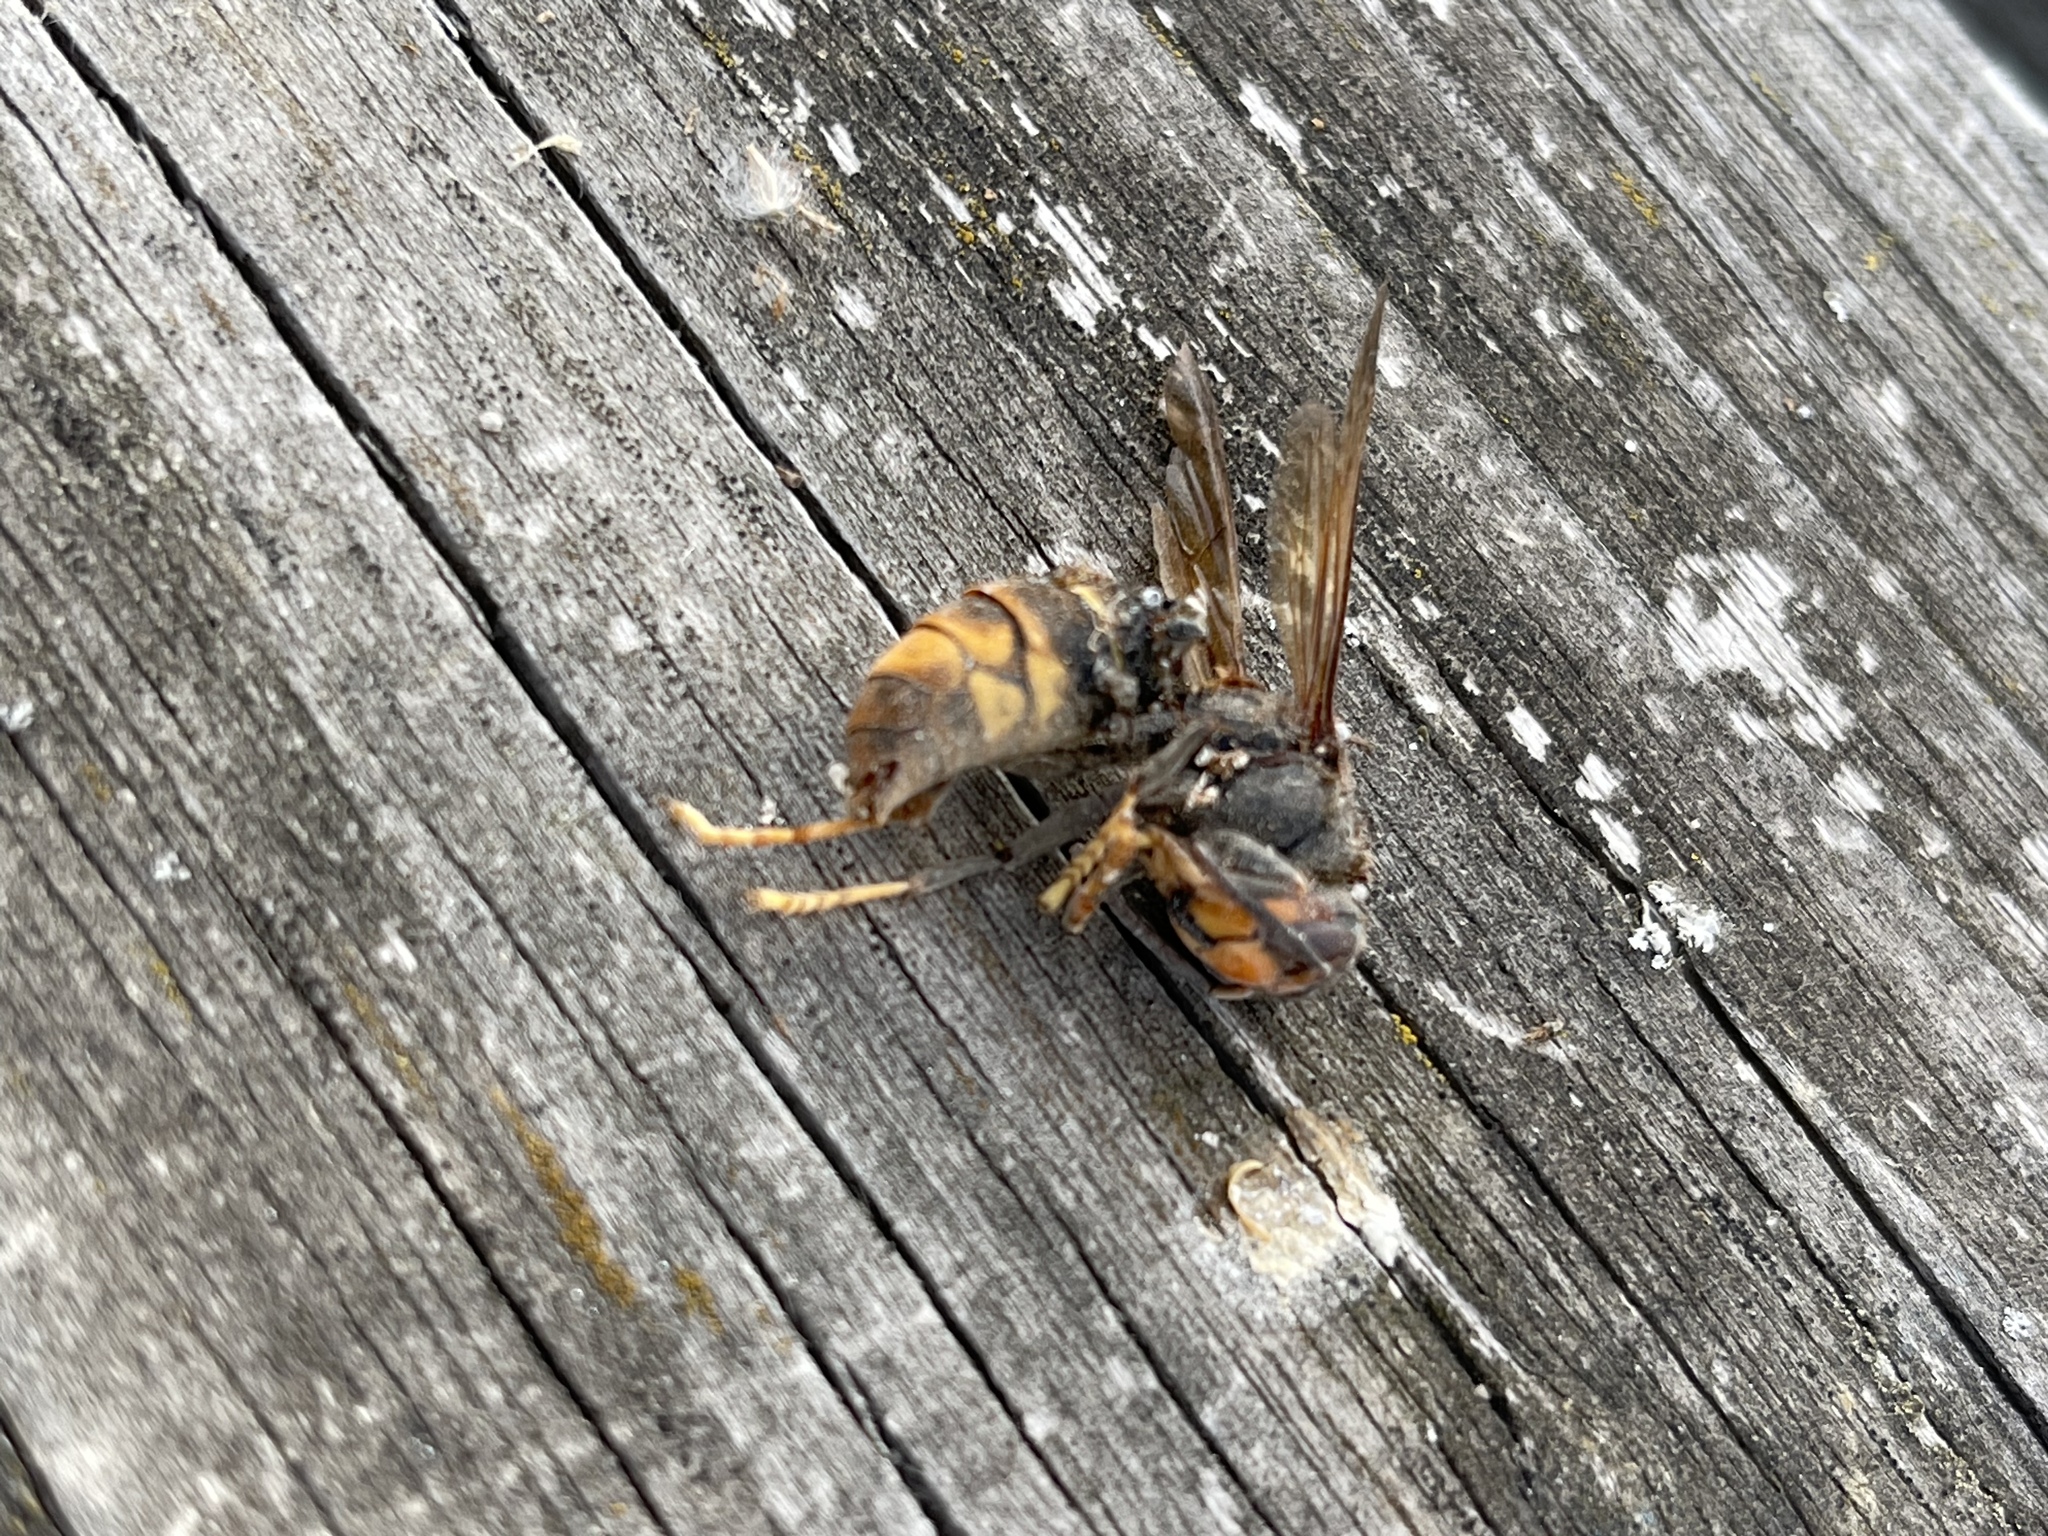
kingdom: Animalia
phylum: Arthropoda
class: Insecta
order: Hymenoptera
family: Vespidae
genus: Vespa
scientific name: Vespa velutina
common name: Asian hornet
